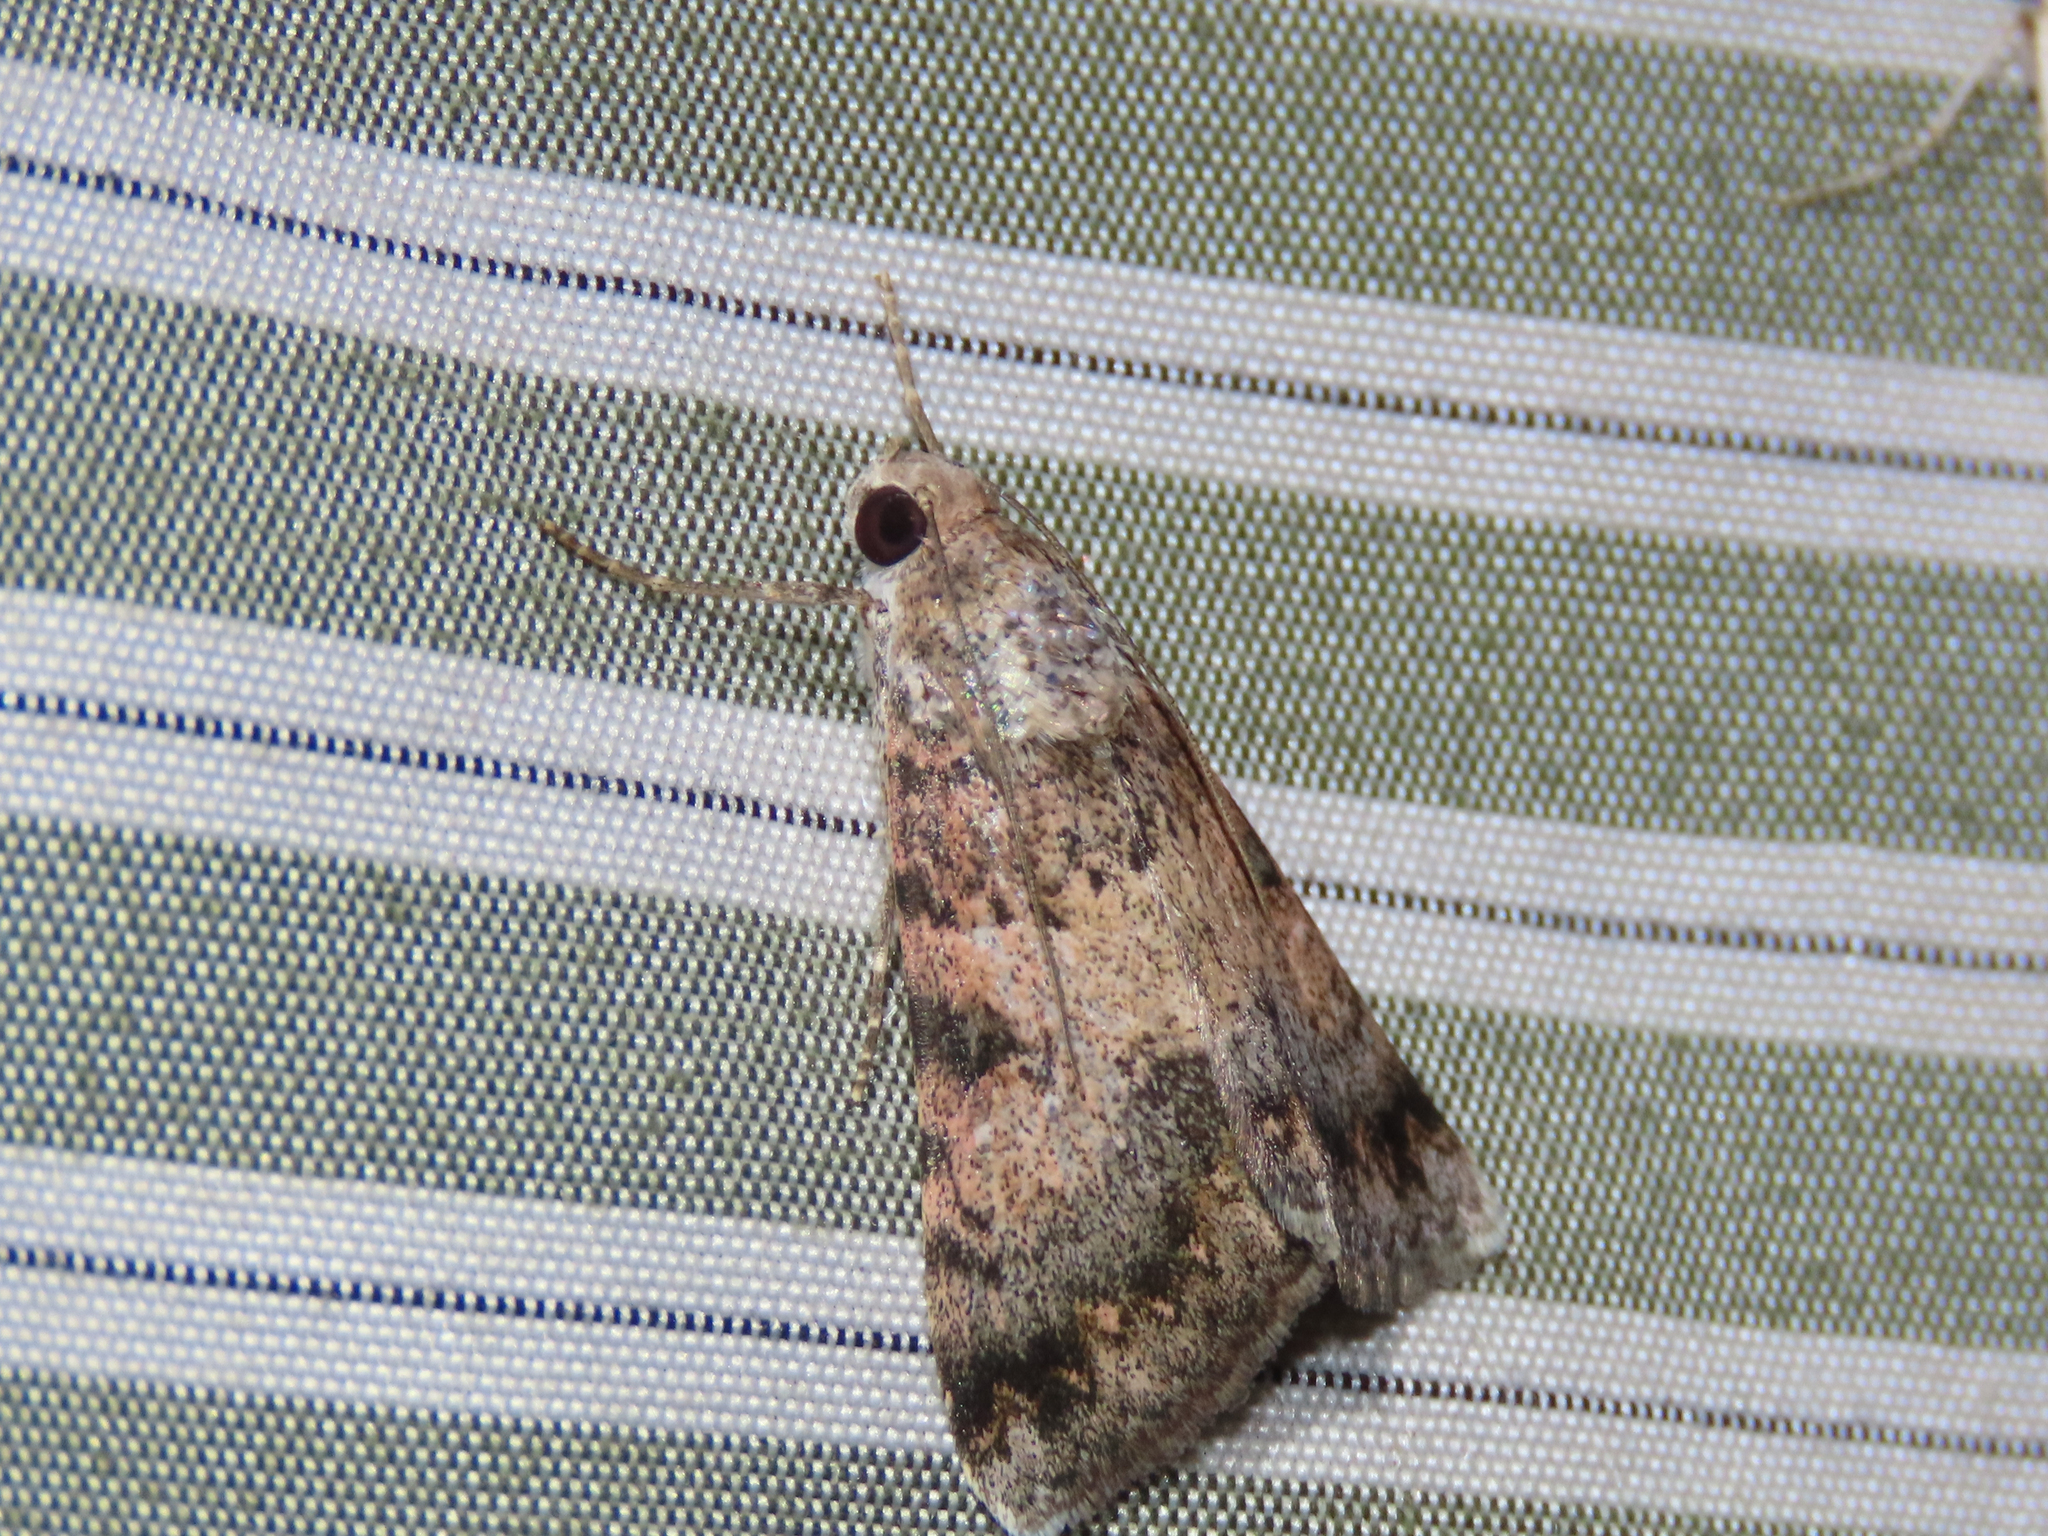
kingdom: Animalia
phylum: Arthropoda
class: Insecta
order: Lepidoptera
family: Erebidae
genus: Melipotis
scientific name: Melipotis jucunda
